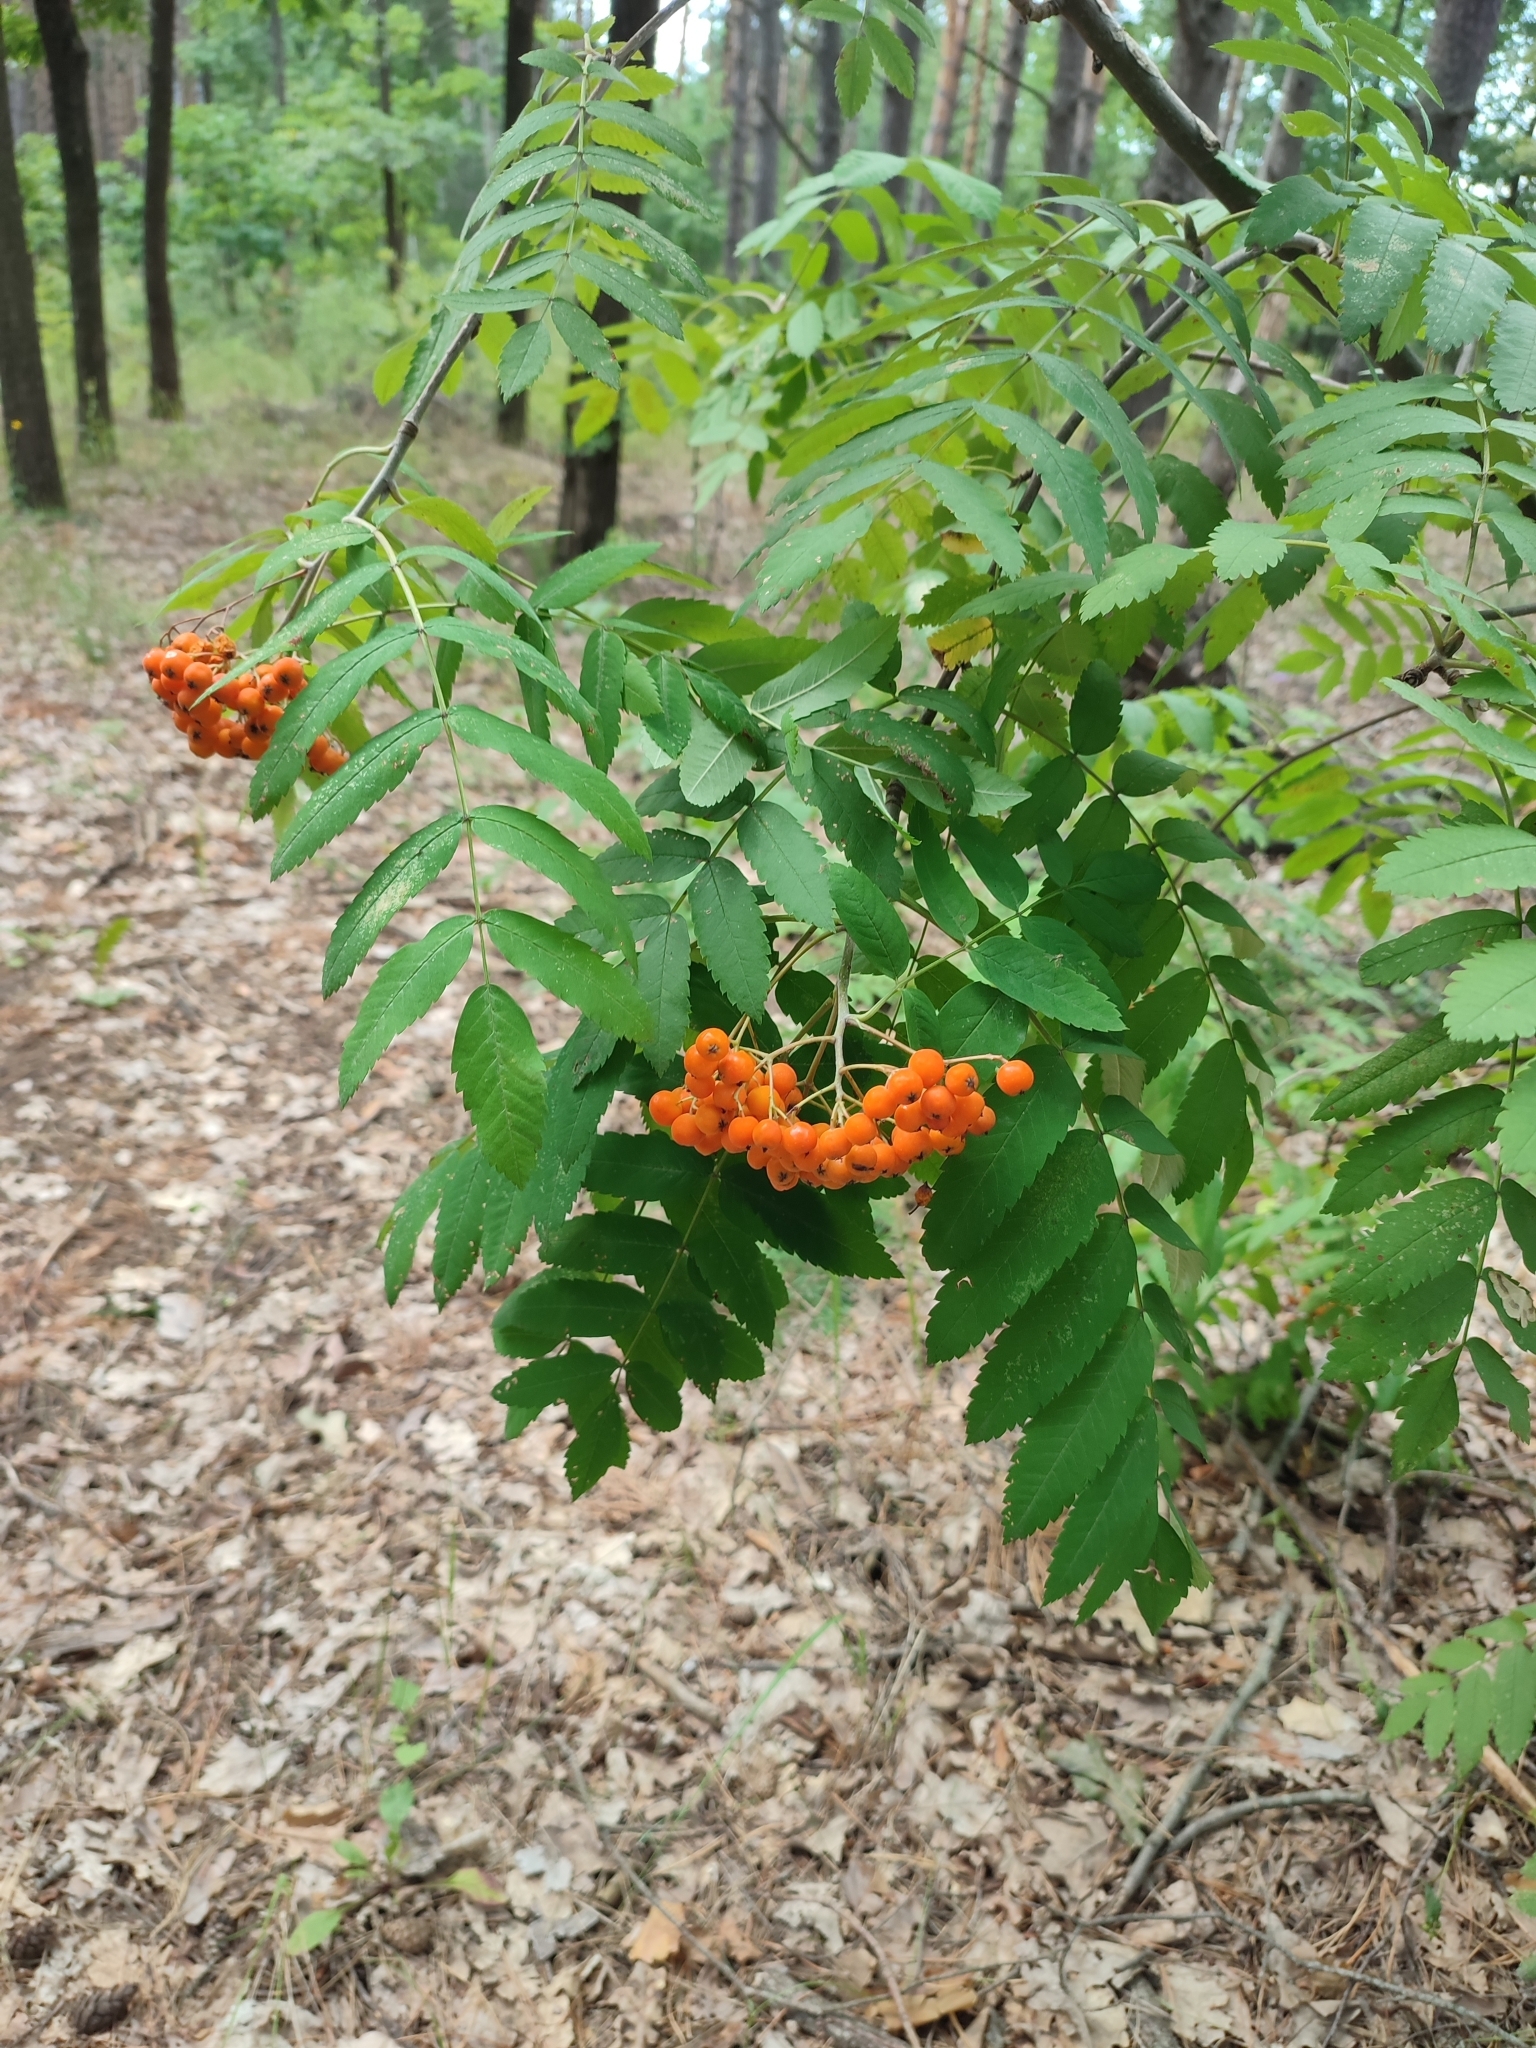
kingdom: Plantae
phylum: Tracheophyta
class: Magnoliopsida
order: Rosales
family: Rosaceae
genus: Sorbus
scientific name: Sorbus aucuparia
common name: Rowan
